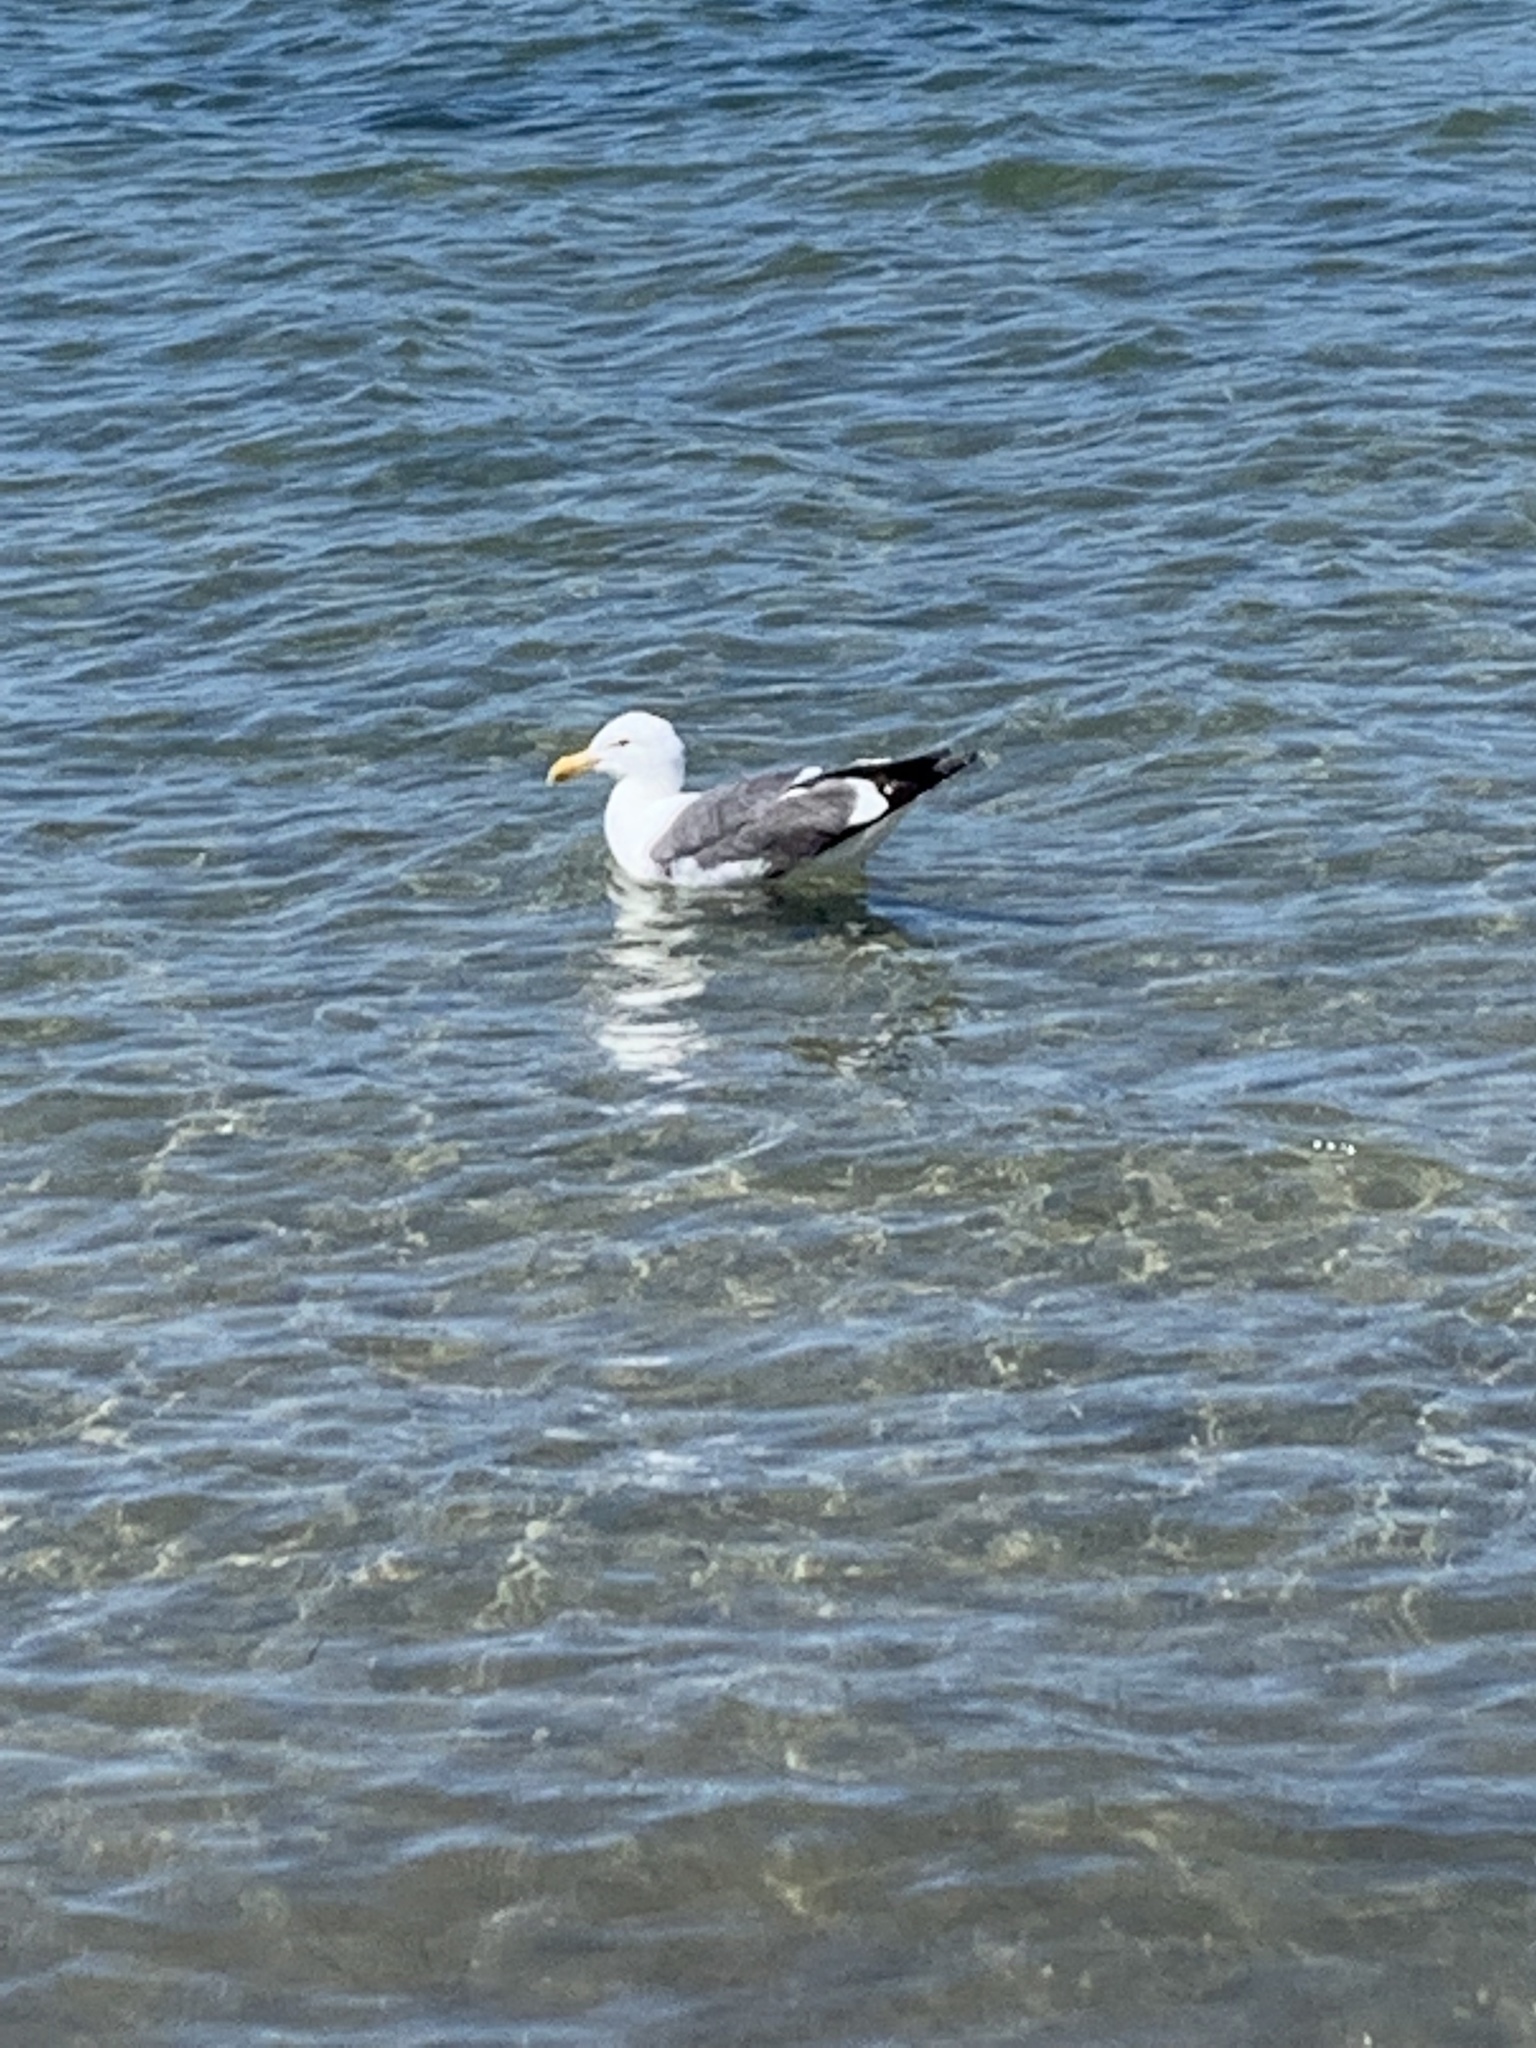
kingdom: Animalia
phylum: Chordata
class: Aves
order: Charadriiformes
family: Laridae
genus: Larus
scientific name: Larus occidentalis
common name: Western gull
